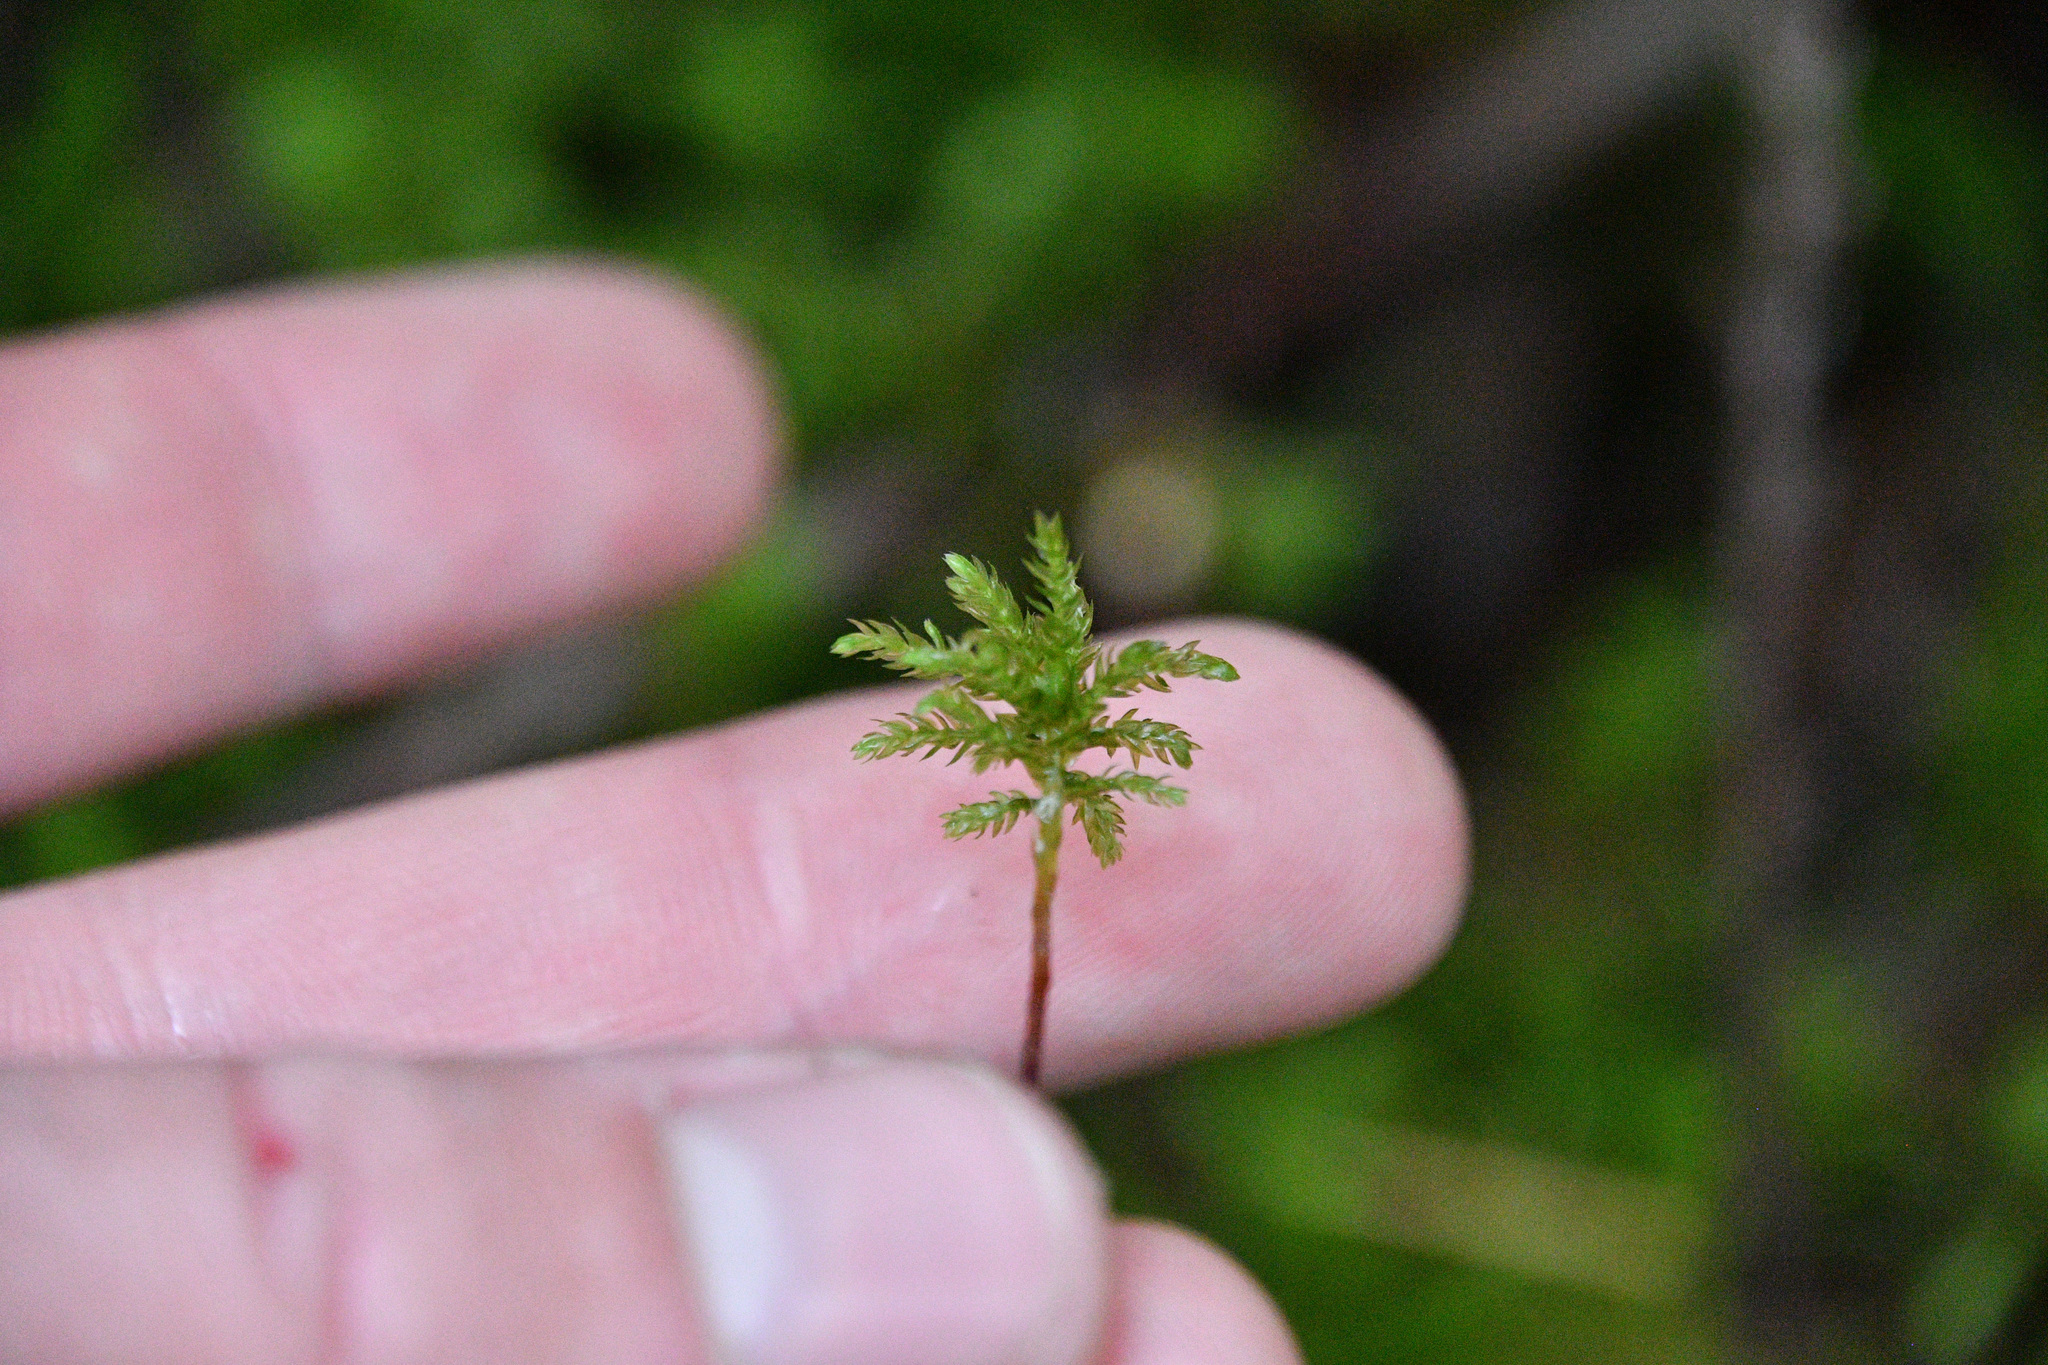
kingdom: Plantae
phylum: Bryophyta
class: Bryopsida
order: Bryales
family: Mniaceae
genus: Leucolepis
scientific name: Leucolepis acanthoneura
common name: Leucolepis umbrella moss
